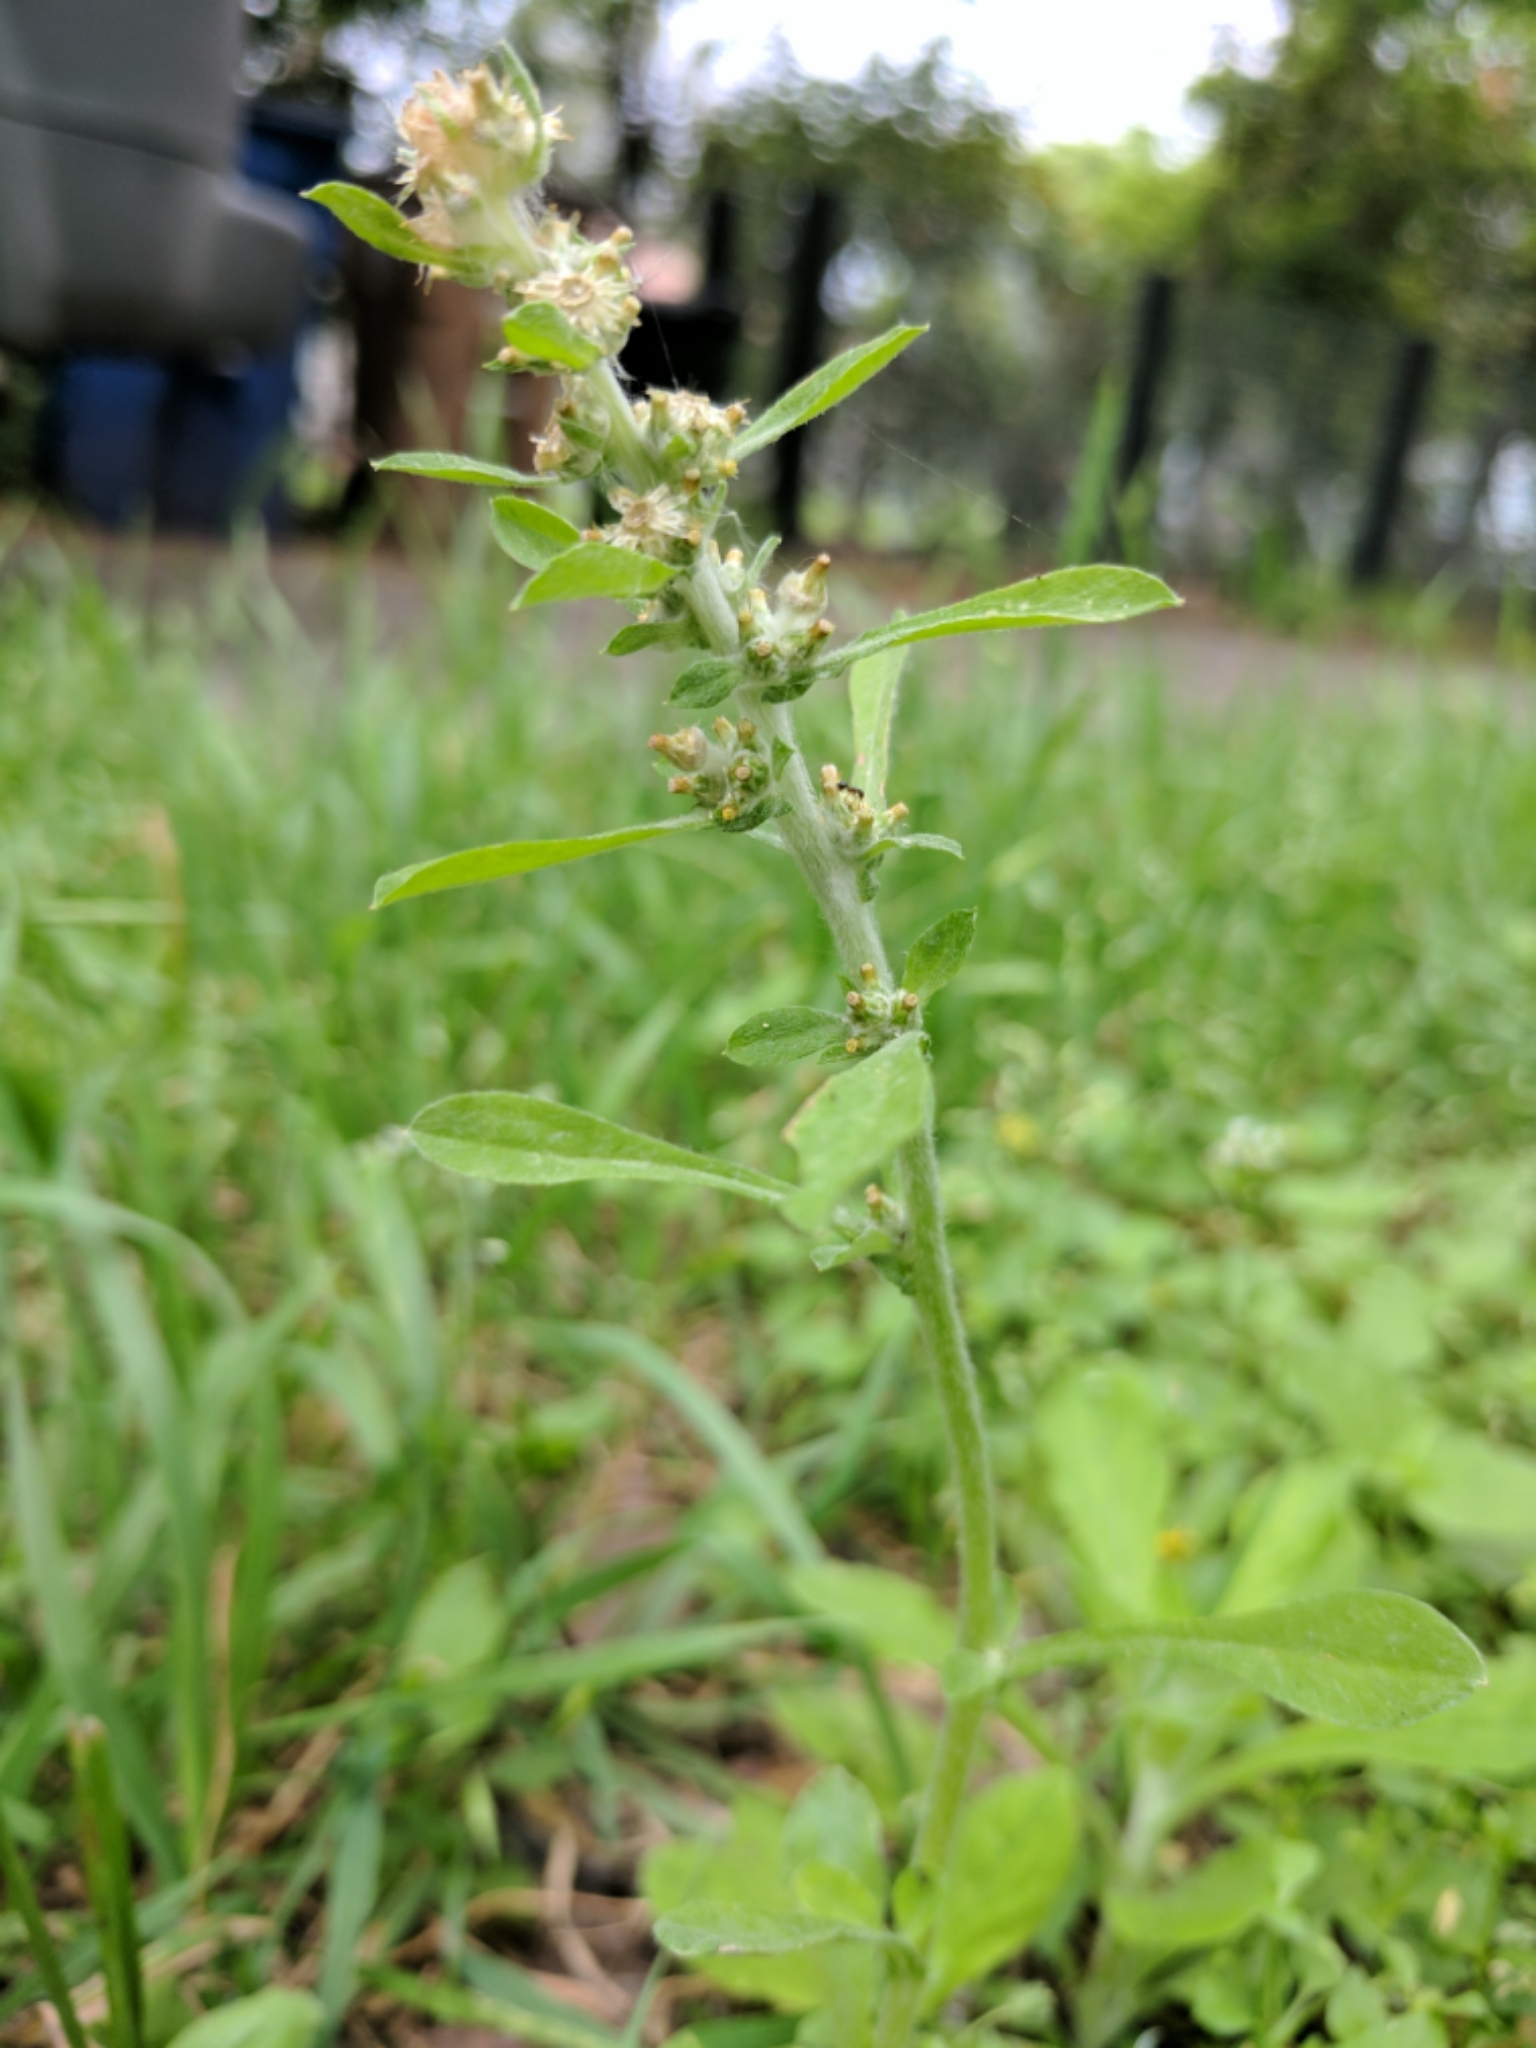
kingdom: Plantae
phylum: Tracheophyta
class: Magnoliopsida
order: Asterales
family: Asteraceae
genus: Gamochaeta
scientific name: Gamochaeta pensylvanica
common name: Pennsylvania everlasting
